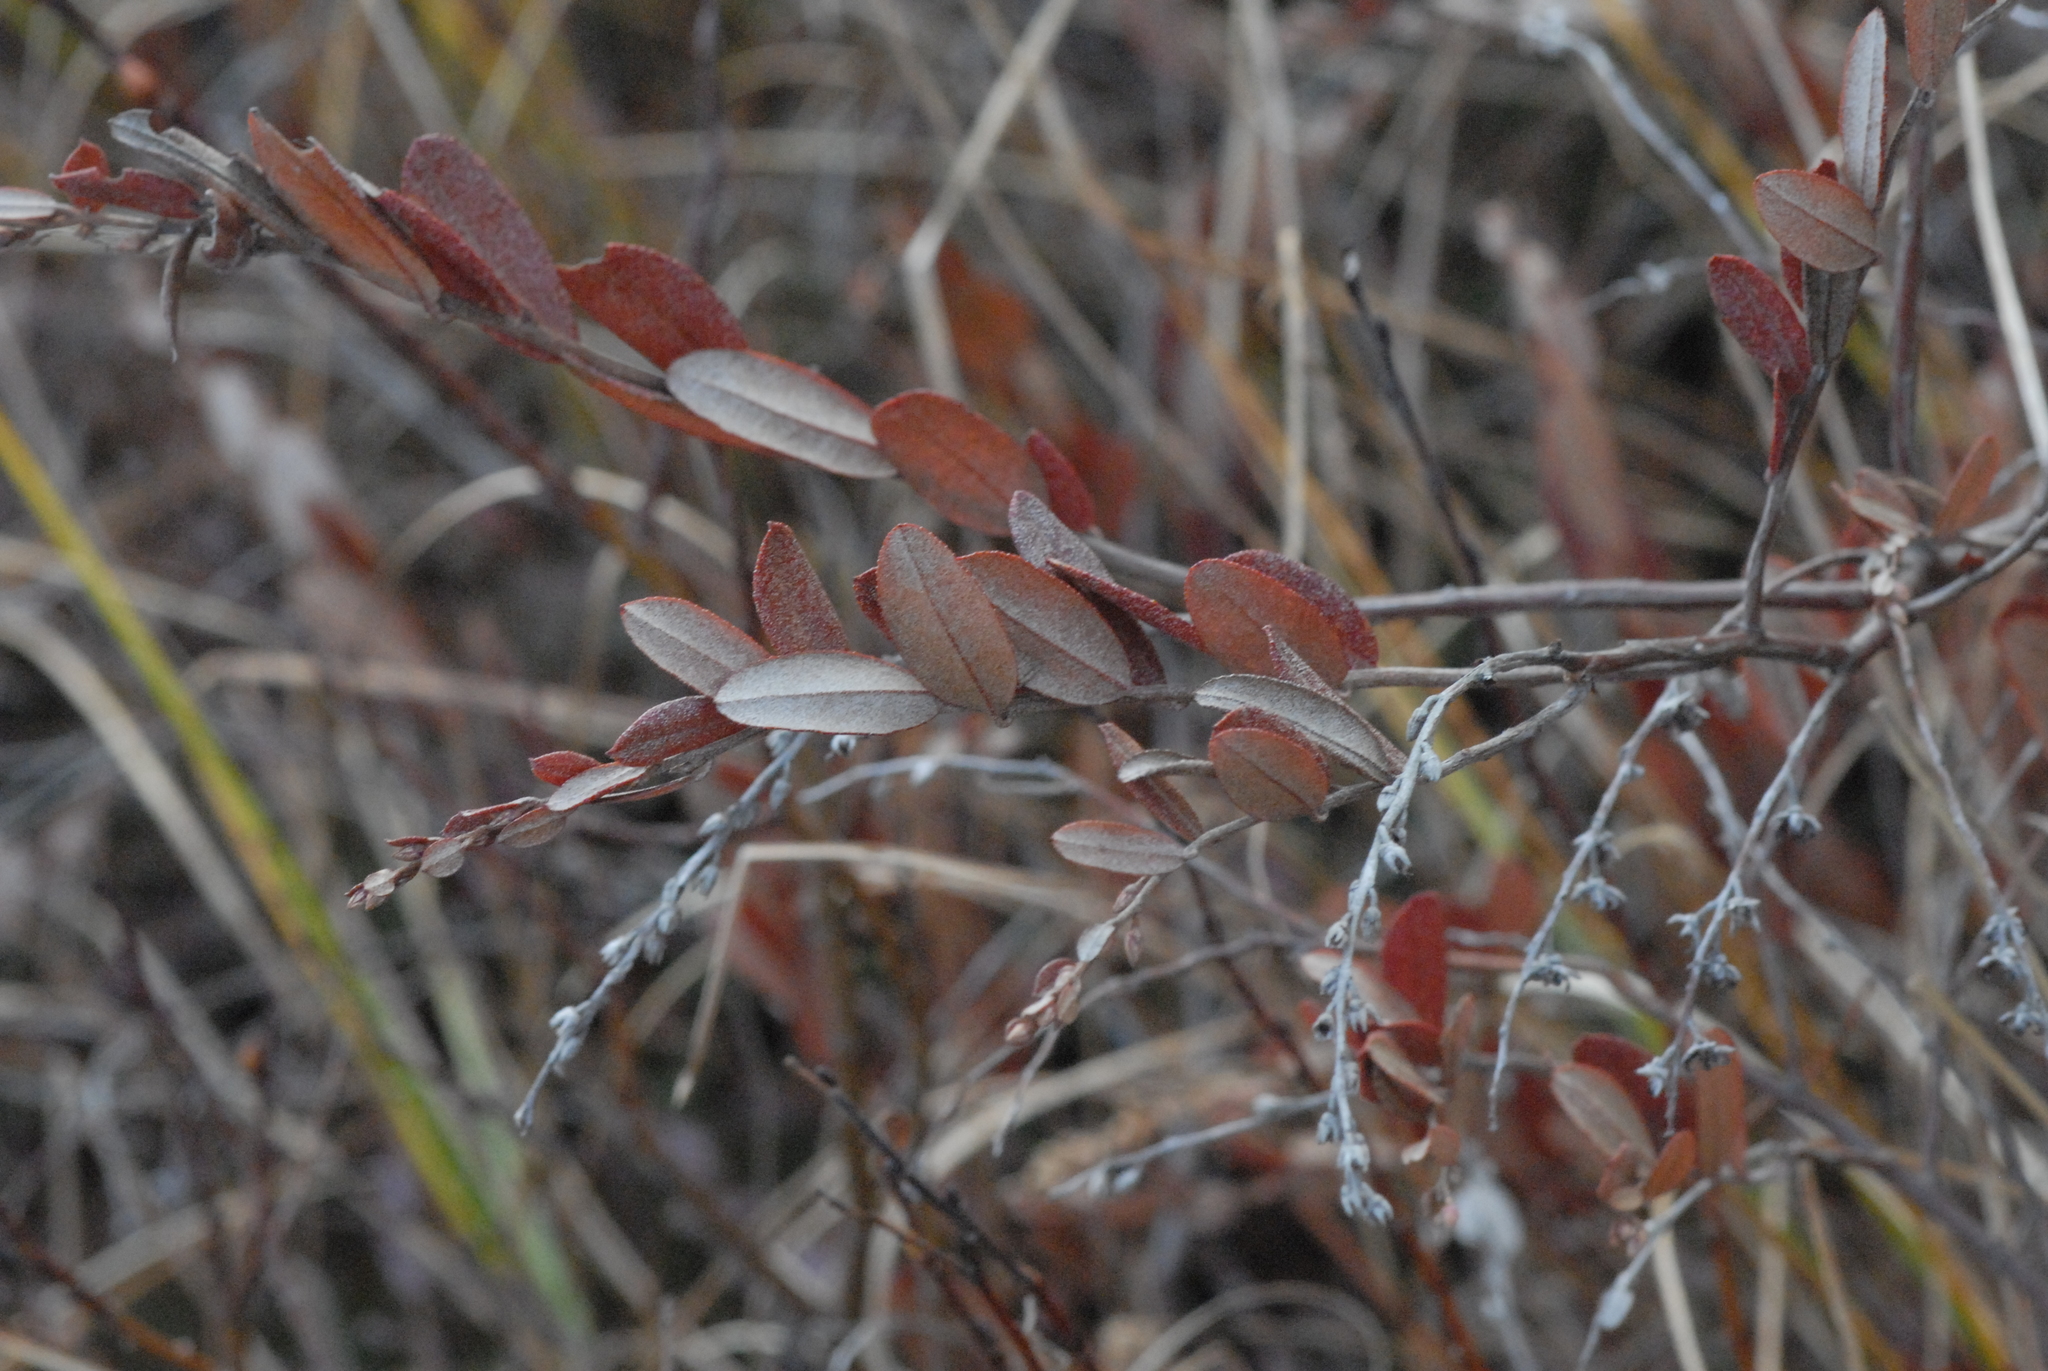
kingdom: Plantae
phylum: Tracheophyta
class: Magnoliopsida
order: Ericales
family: Ericaceae
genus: Chamaedaphne
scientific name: Chamaedaphne calyculata
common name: Leatherleaf
